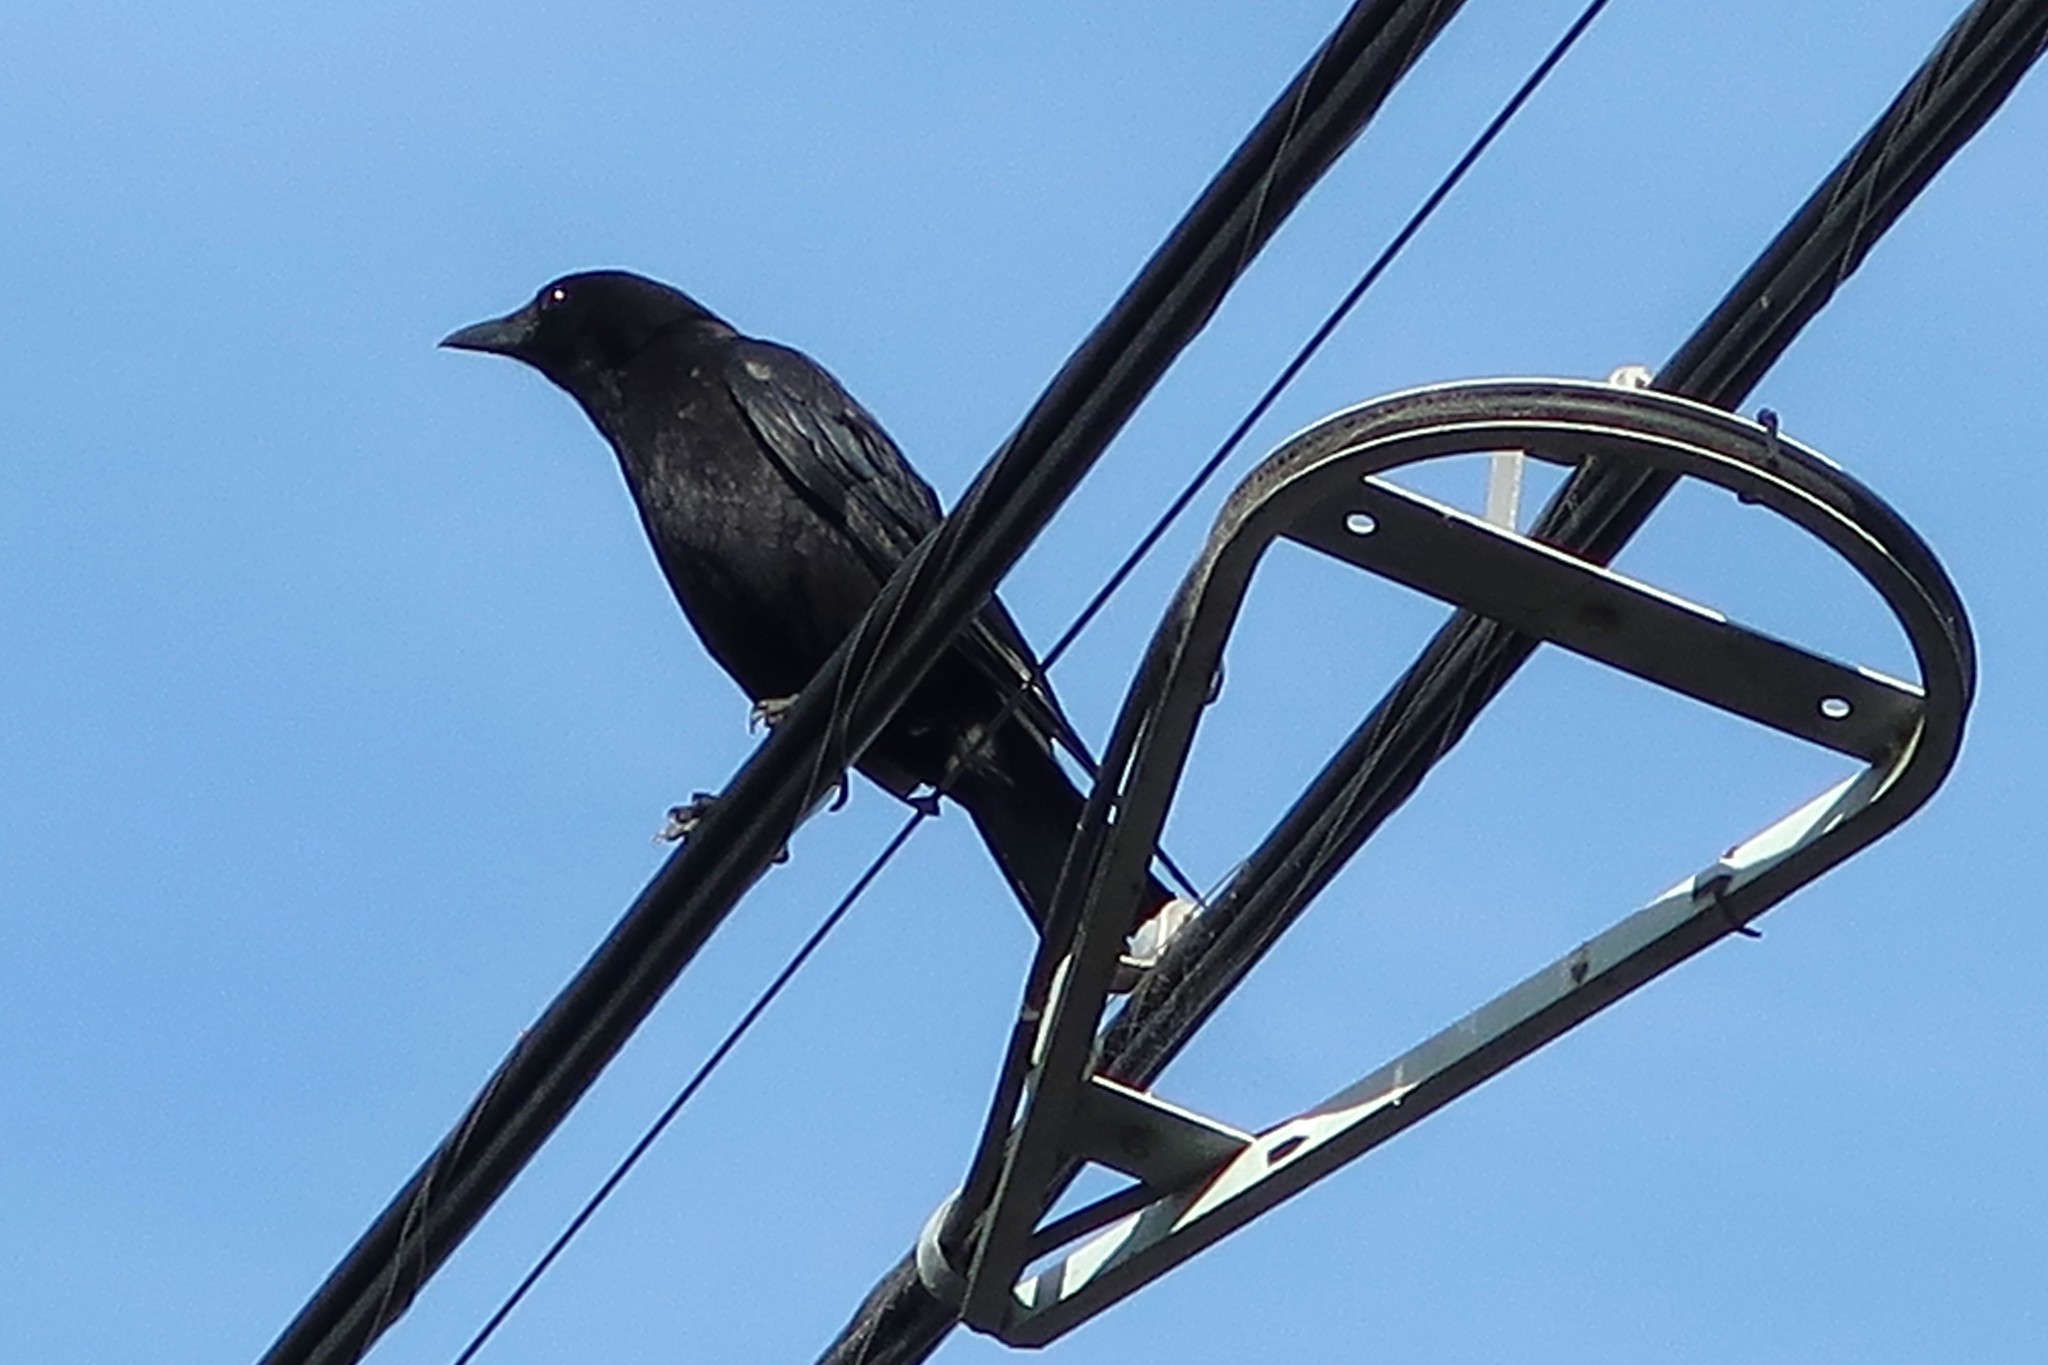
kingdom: Animalia
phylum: Chordata
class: Aves
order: Passeriformes
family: Corvidae
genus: Corvus
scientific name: Corvus brachyrhynchos
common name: American crow
